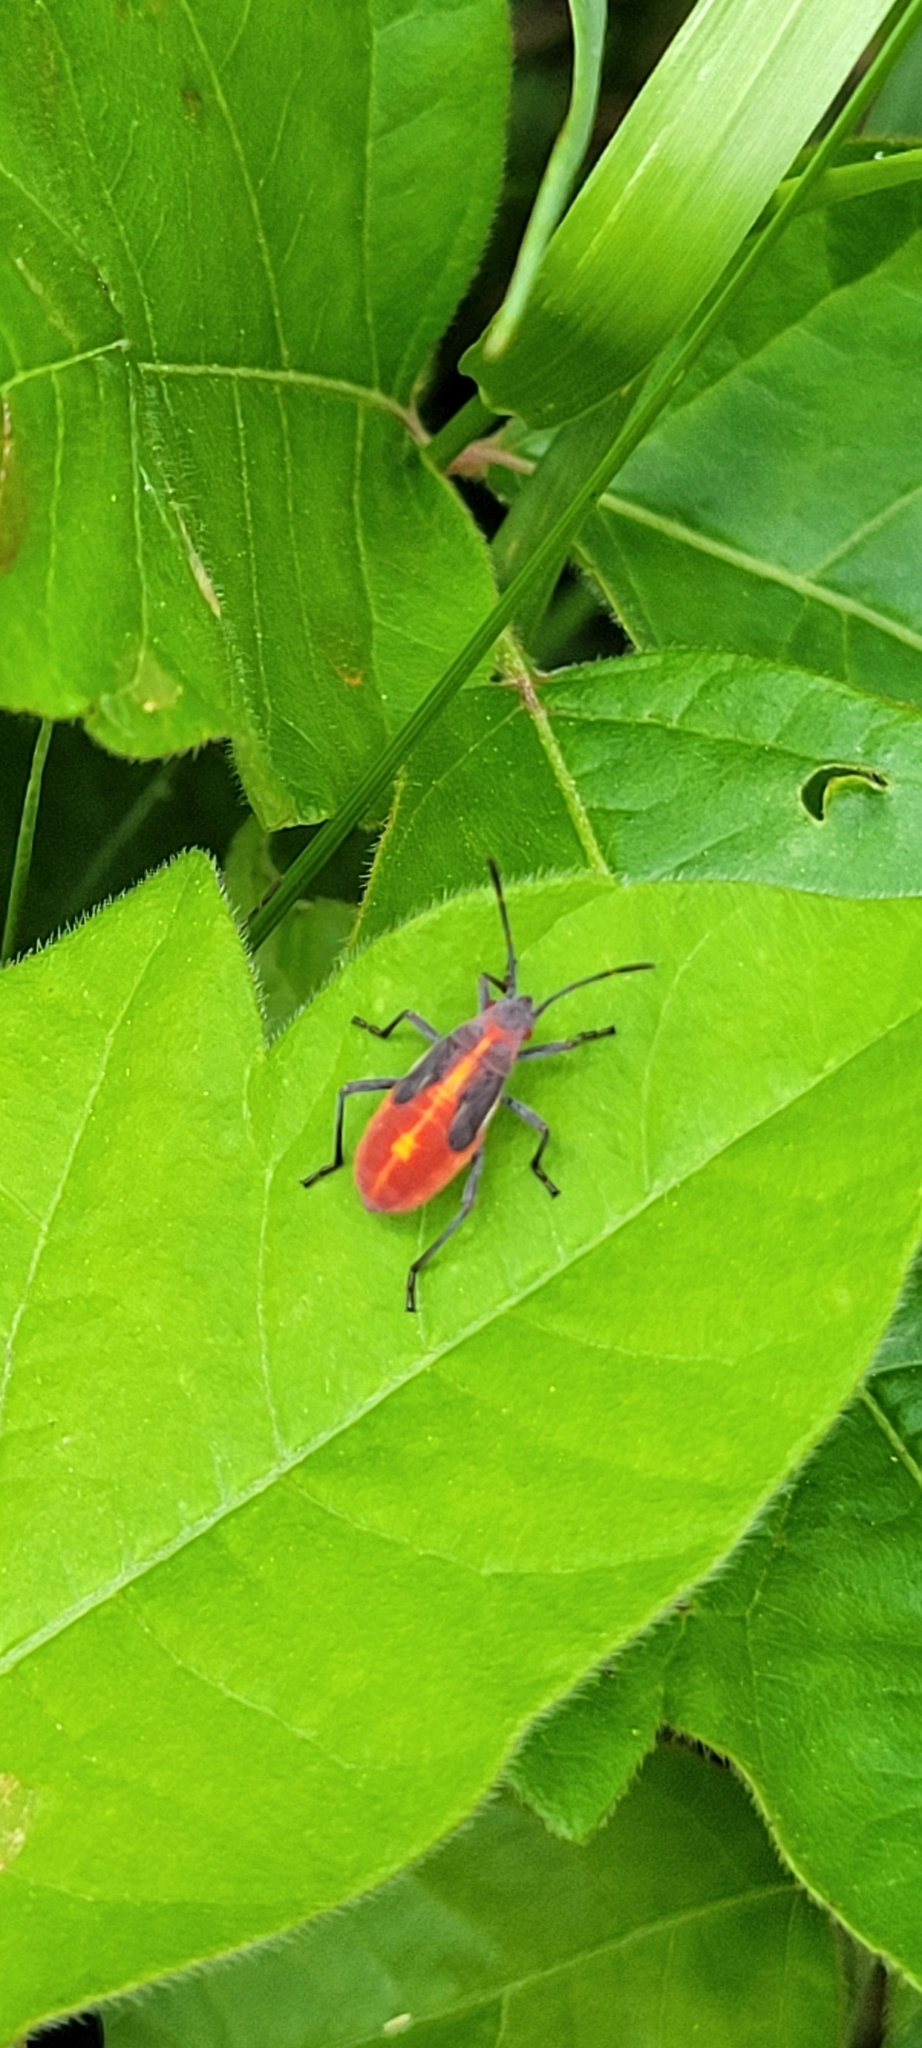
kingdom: Animalia
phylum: Arthropoda
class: Insecta
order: Hemiptera
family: Rhopalidae
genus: Boisea
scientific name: Boisea trivittata
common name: Boxelder bug
